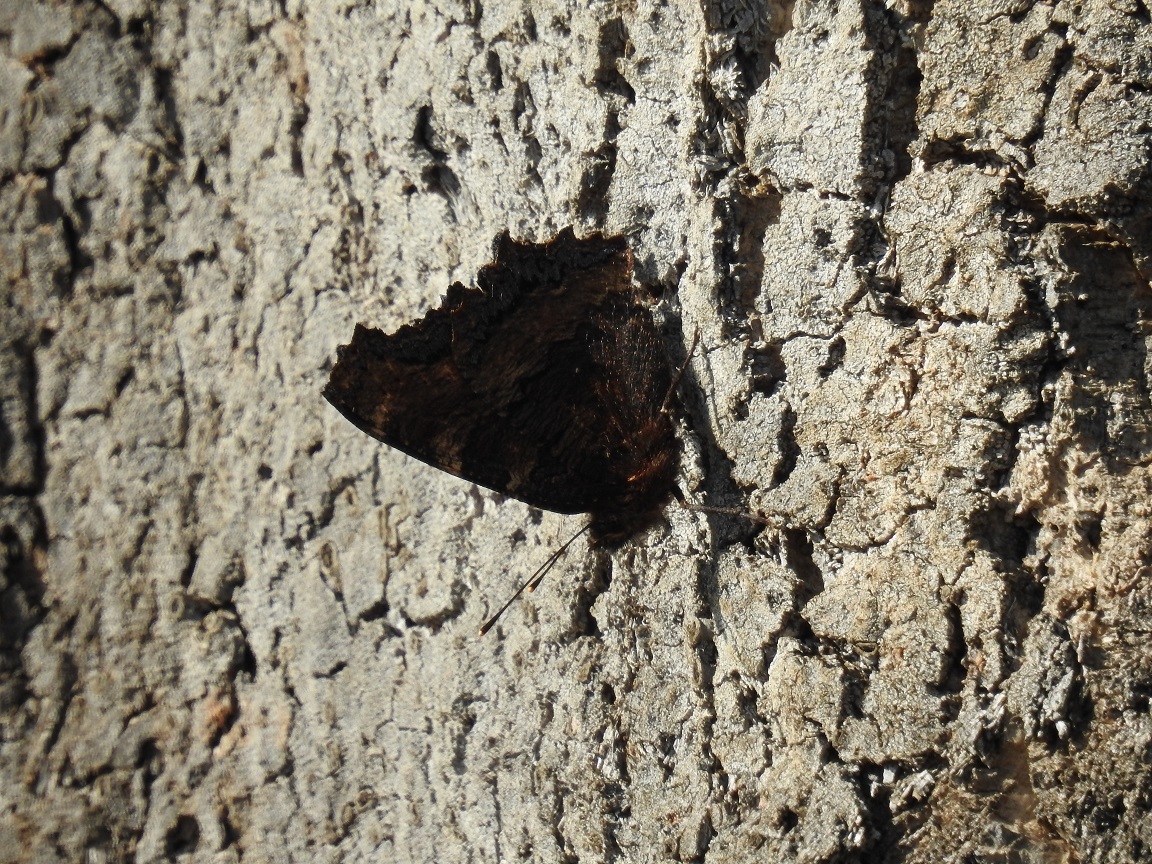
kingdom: Animalia
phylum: Arthropoda
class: Insecta
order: Lepidoptera
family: Nymphalidae
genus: Nymphalis
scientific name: Nymphalis polychloros
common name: Large tortoiseshell
